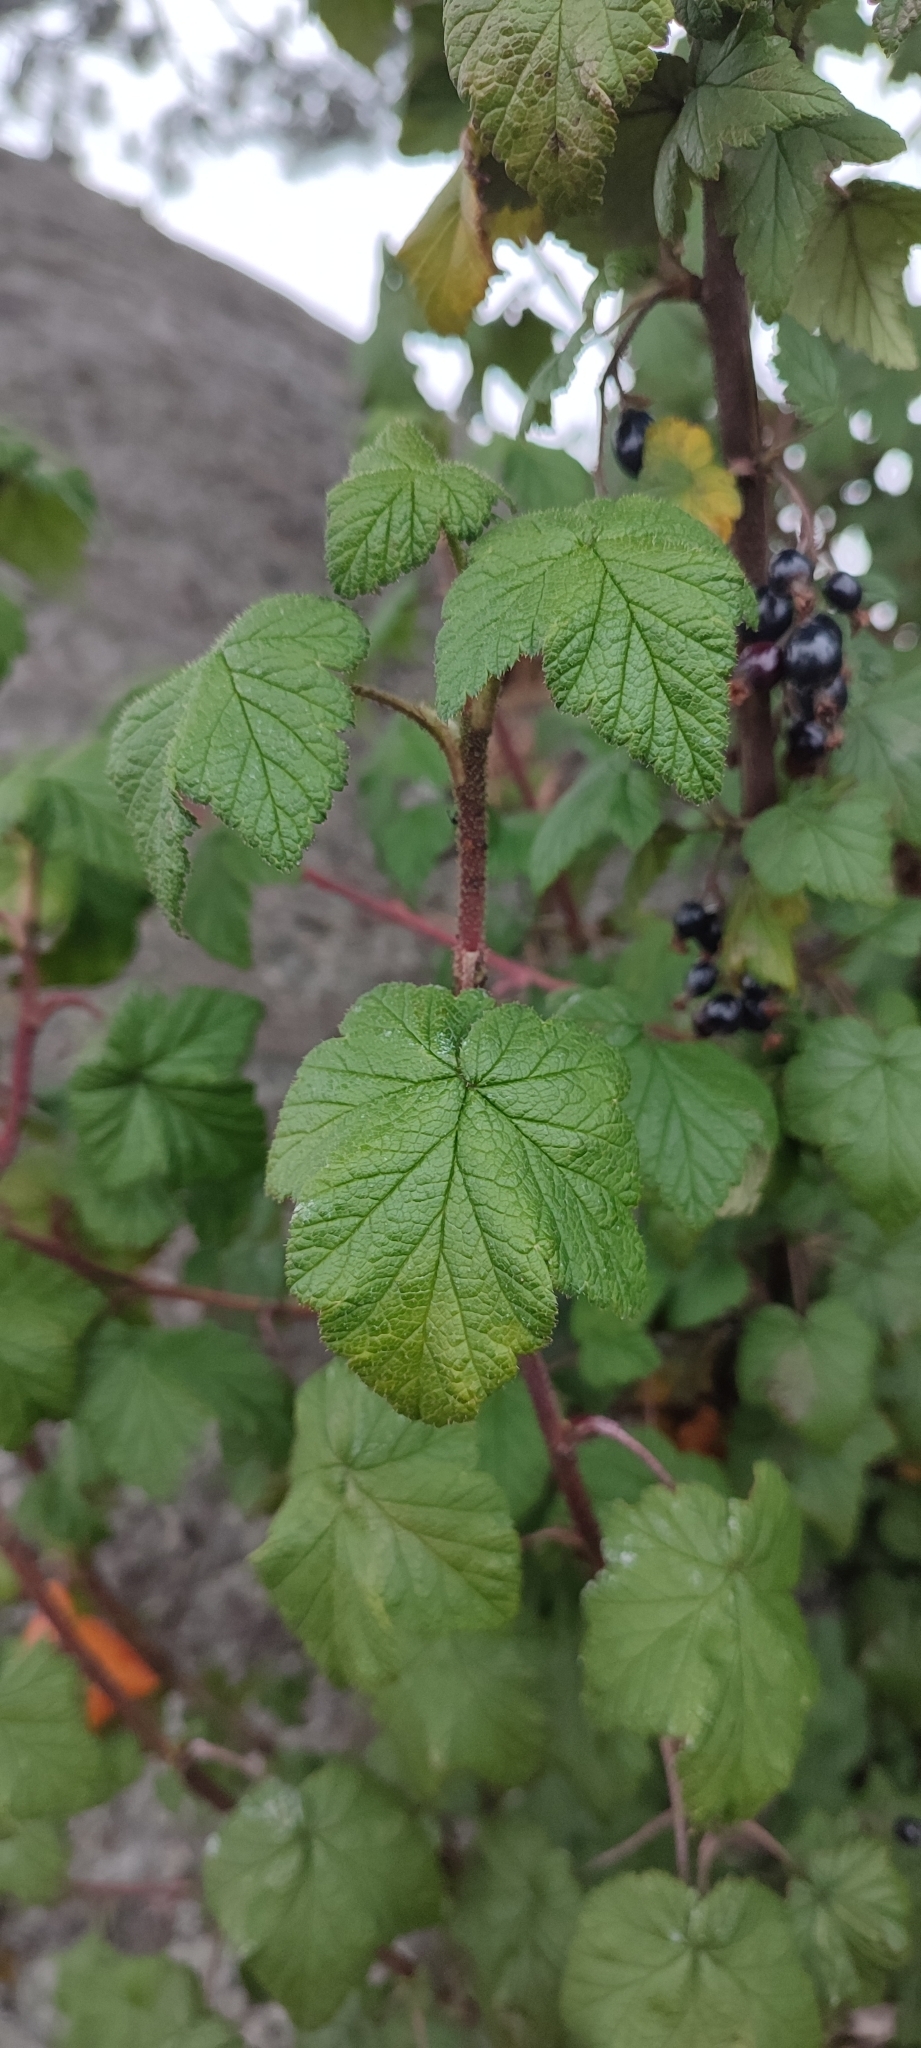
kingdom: Plantae
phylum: Tracheophyta
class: Magnoliopsida
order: Saxifragales
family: Grossulariaceae
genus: Ribes
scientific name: Ribes ciliatum
